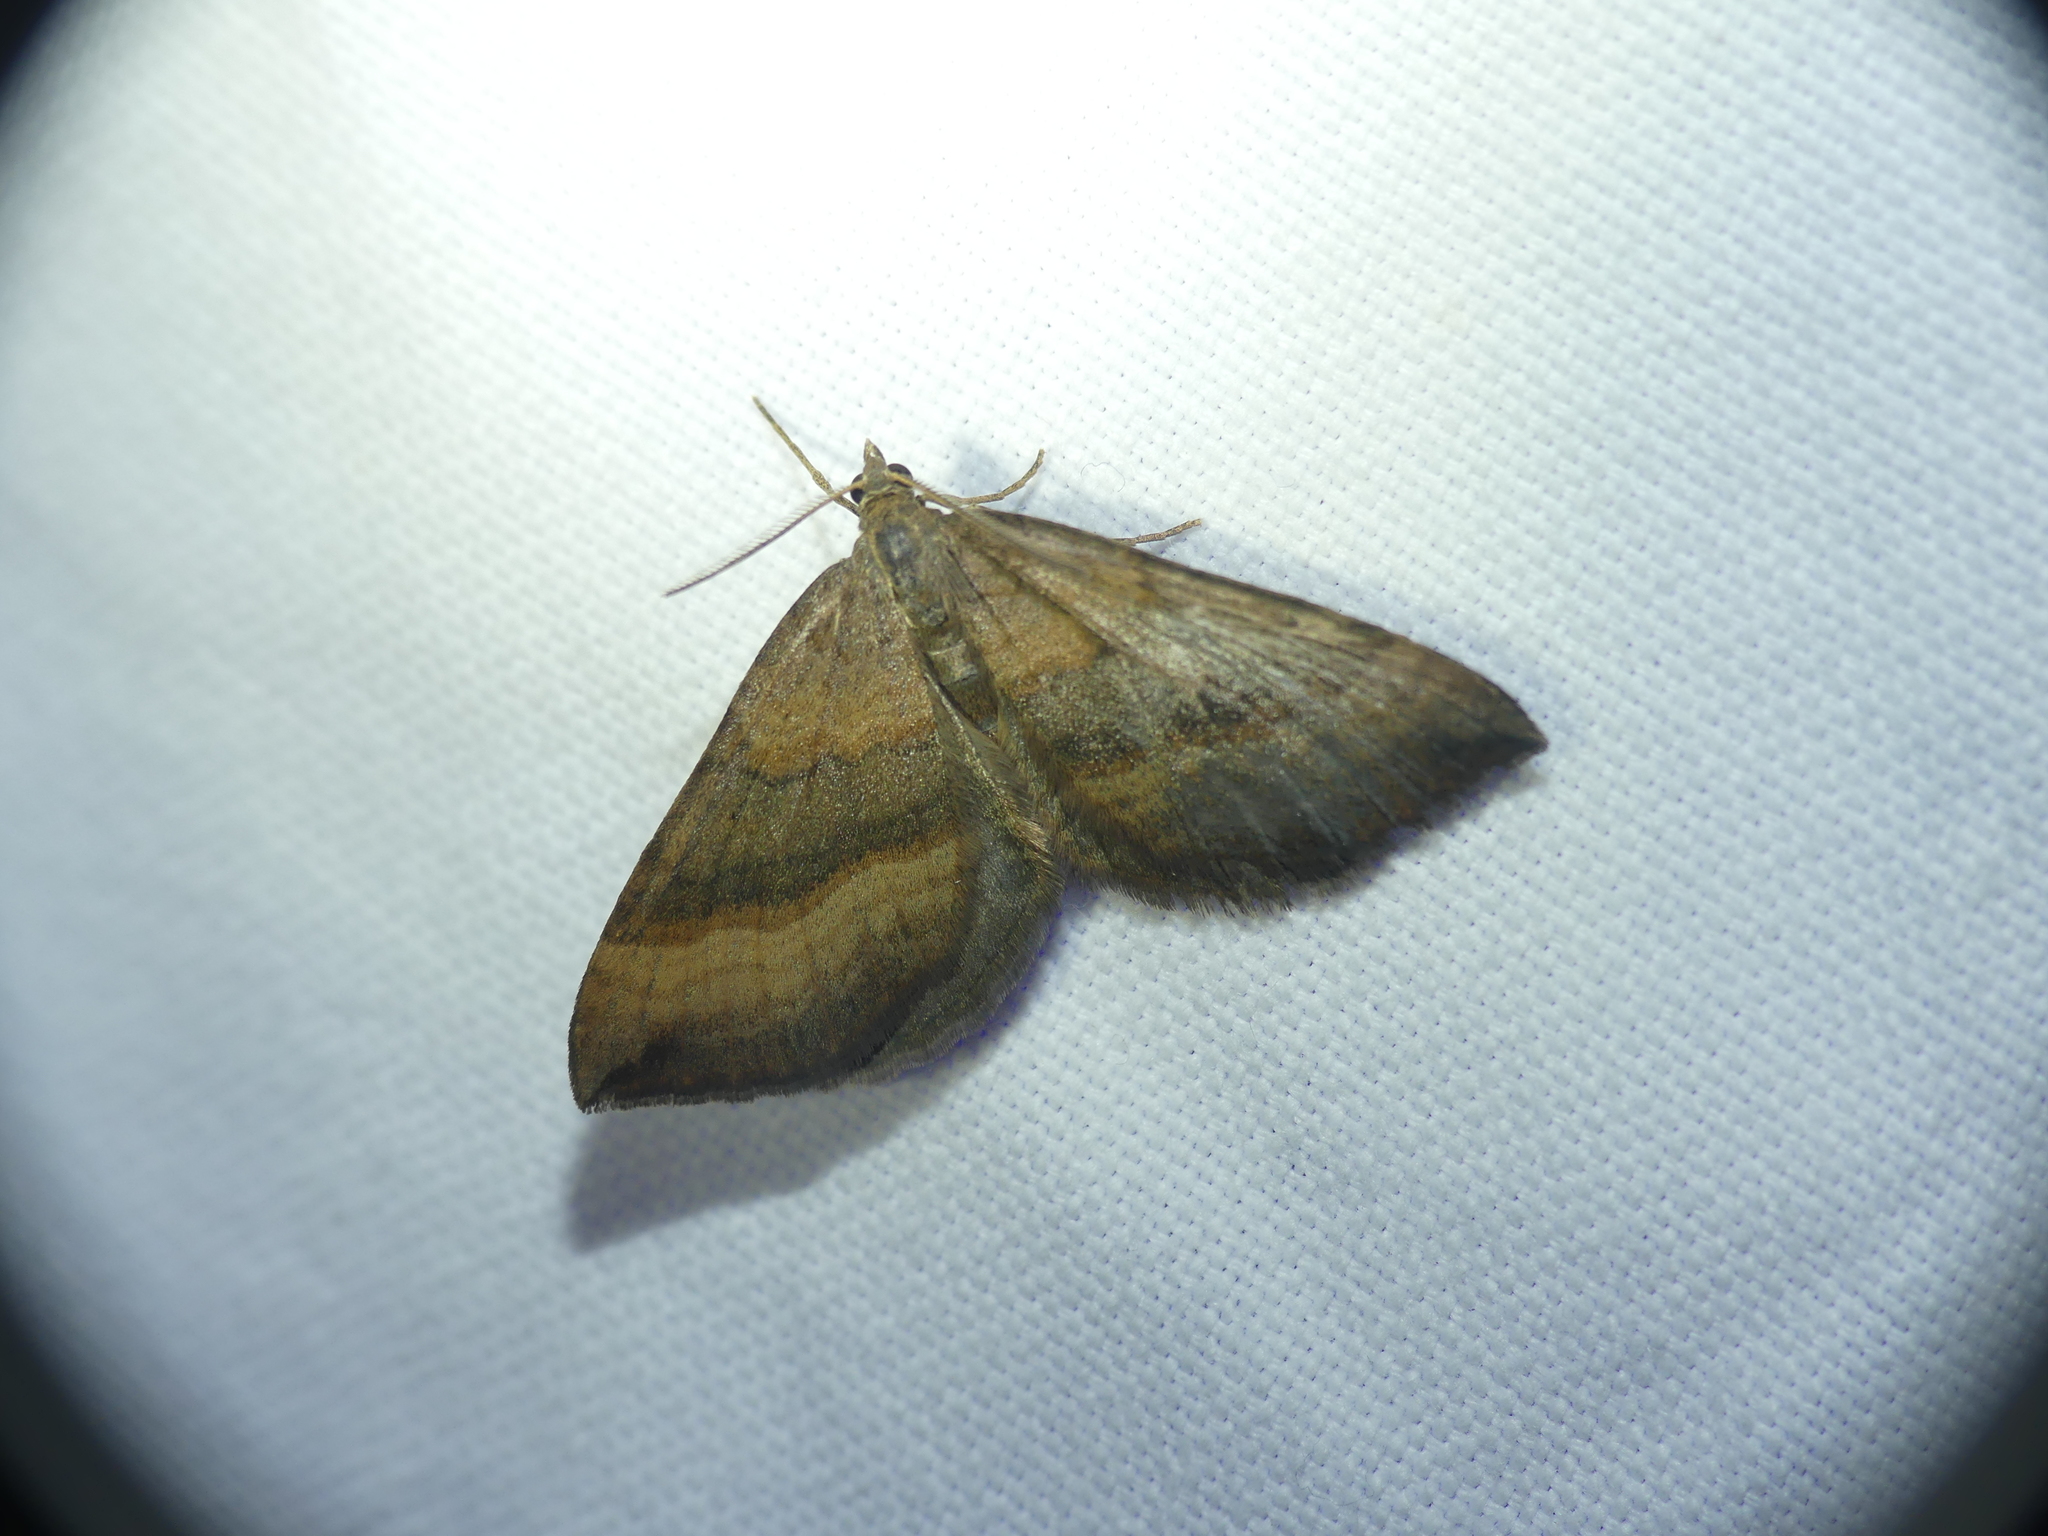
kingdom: Animalia
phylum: Arthropoda
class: Insecta
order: Lepidoptera
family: Geometridae
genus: Scotopteryx
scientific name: Scotopteryx chenopodiata
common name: Shaded broad-bar
